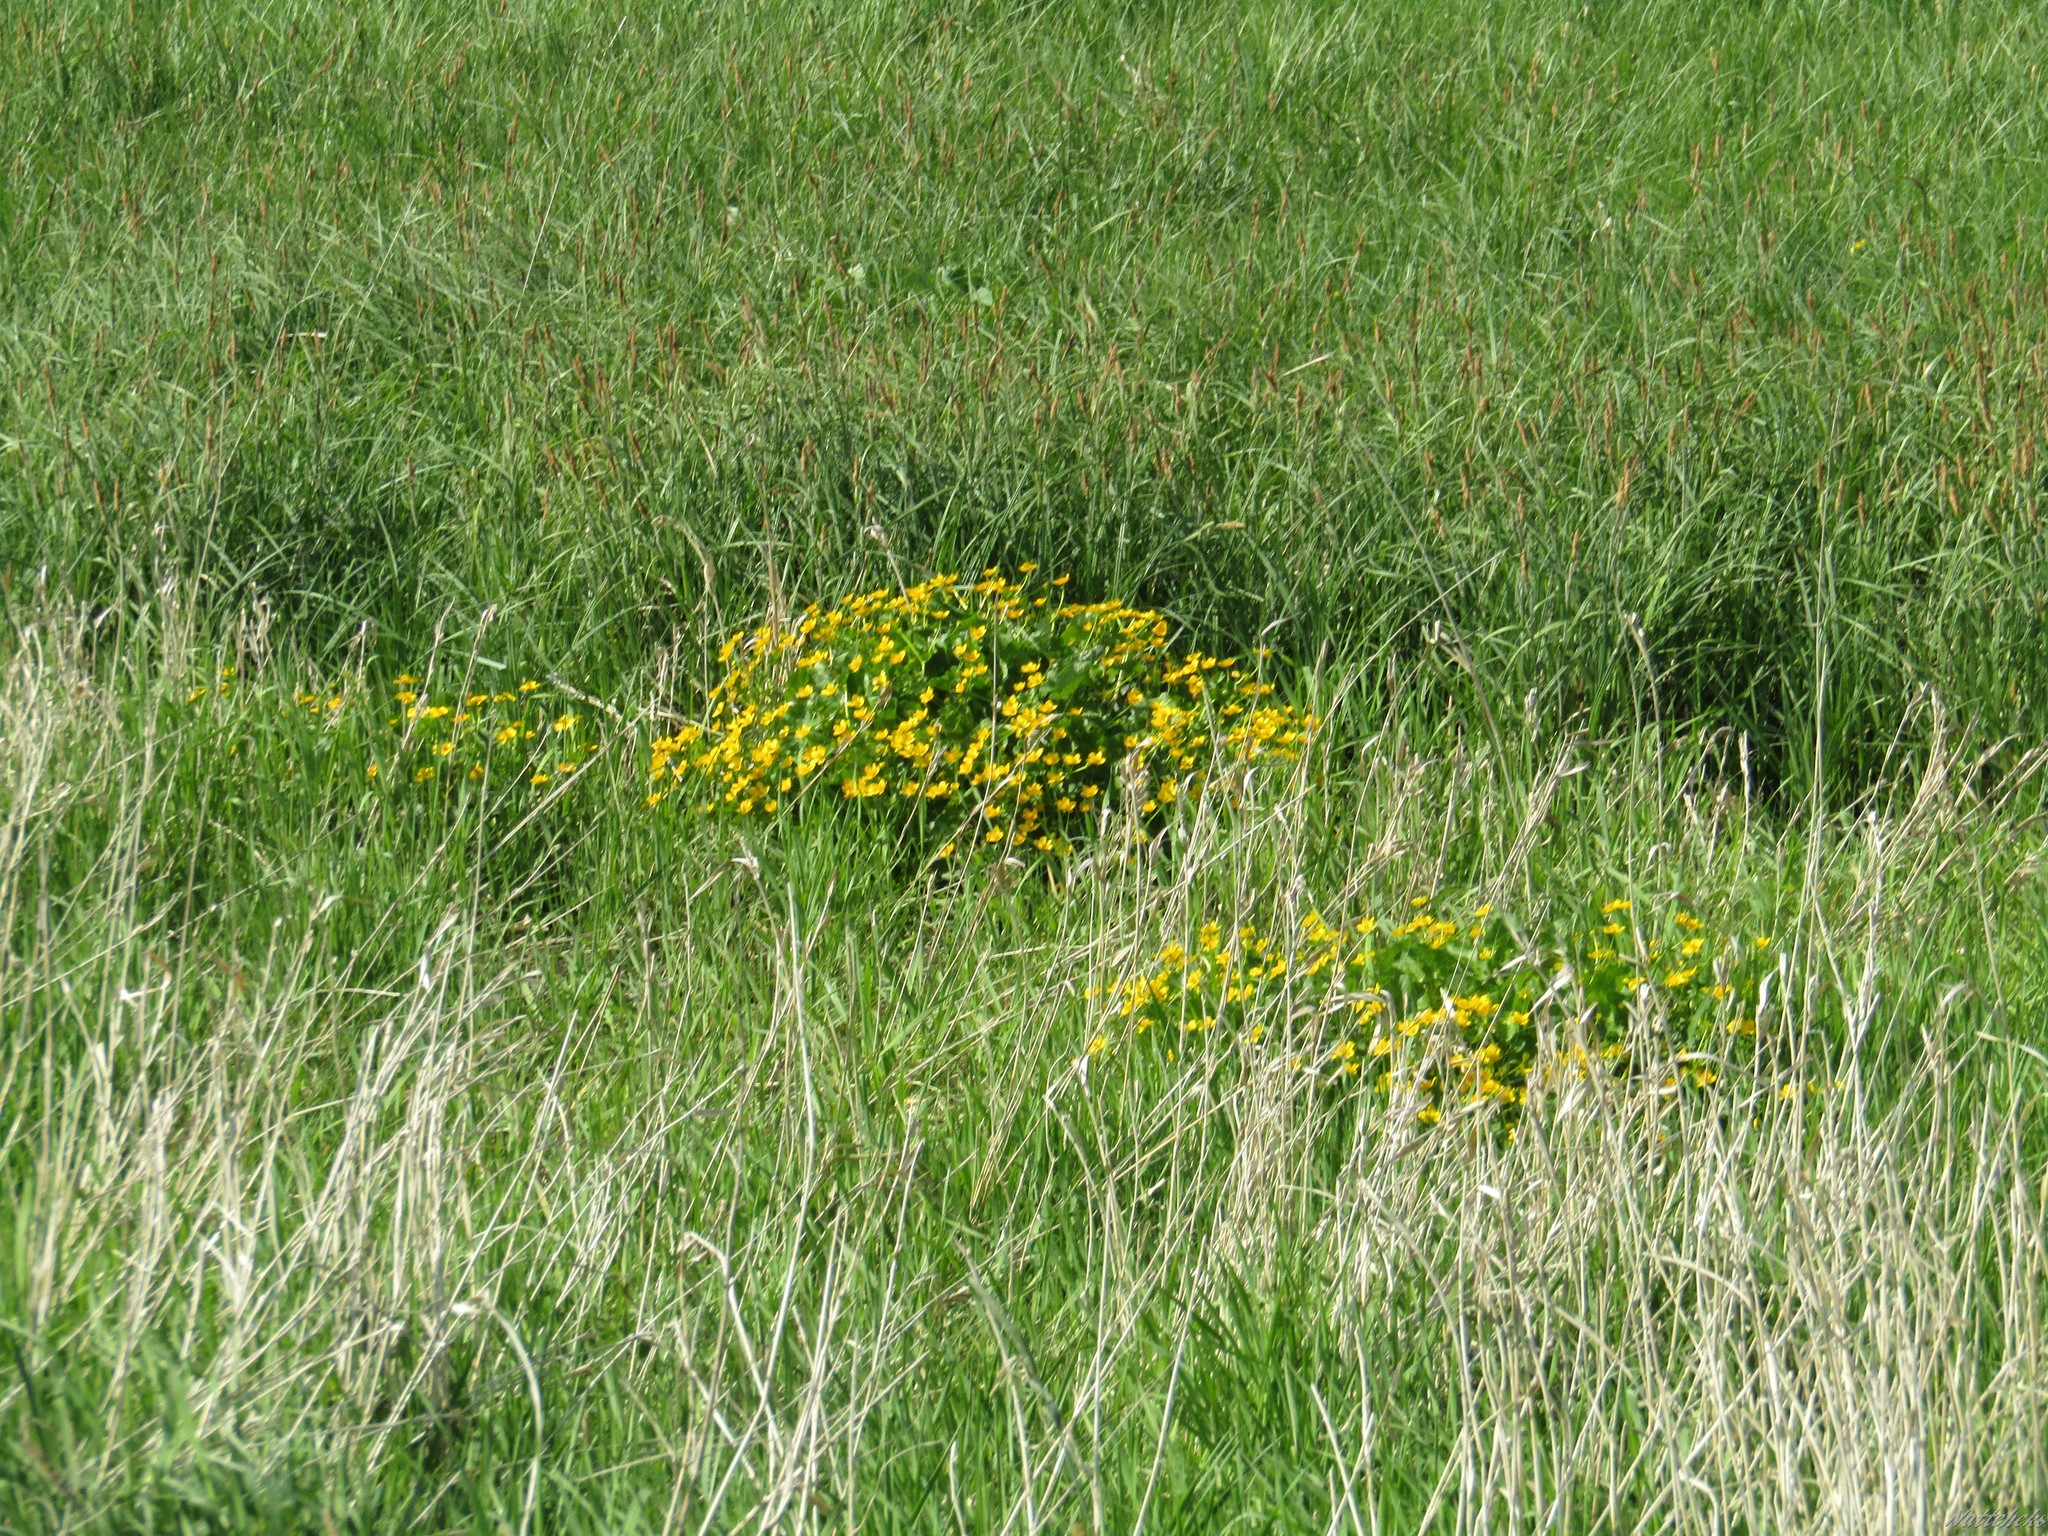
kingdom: Plantae
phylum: Tracheophyta
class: Magnoliopsida
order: Ranunculales
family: Ranunculaceae
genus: Caltha
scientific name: Caltha palustris
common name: Marsh marigold
